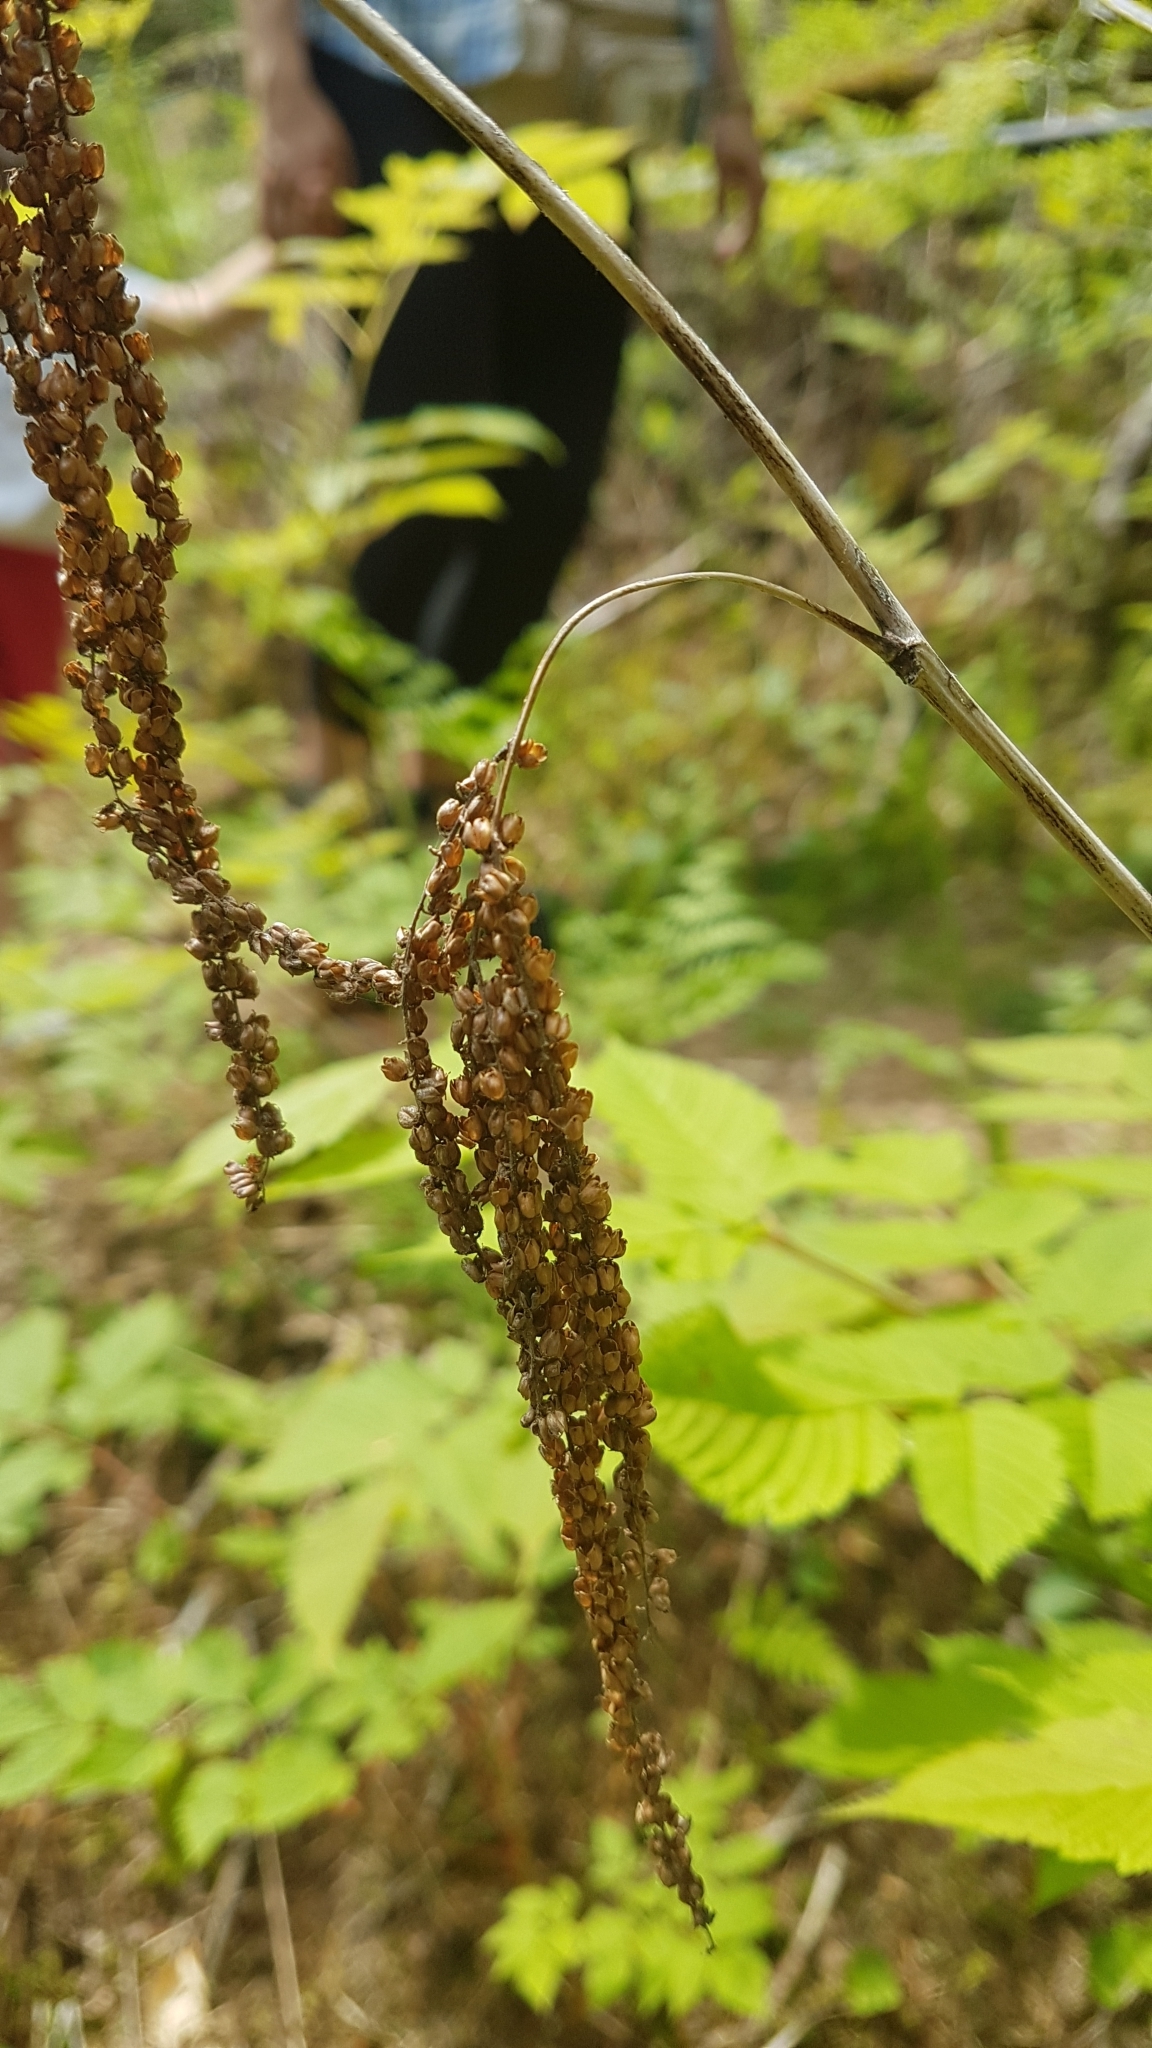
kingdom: Plantae
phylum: Tracheophyta
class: Magnoliopsida
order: Rosales
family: Rosaceae
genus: Aruncus
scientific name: Aruncus dioicus
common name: Buck's-beard
